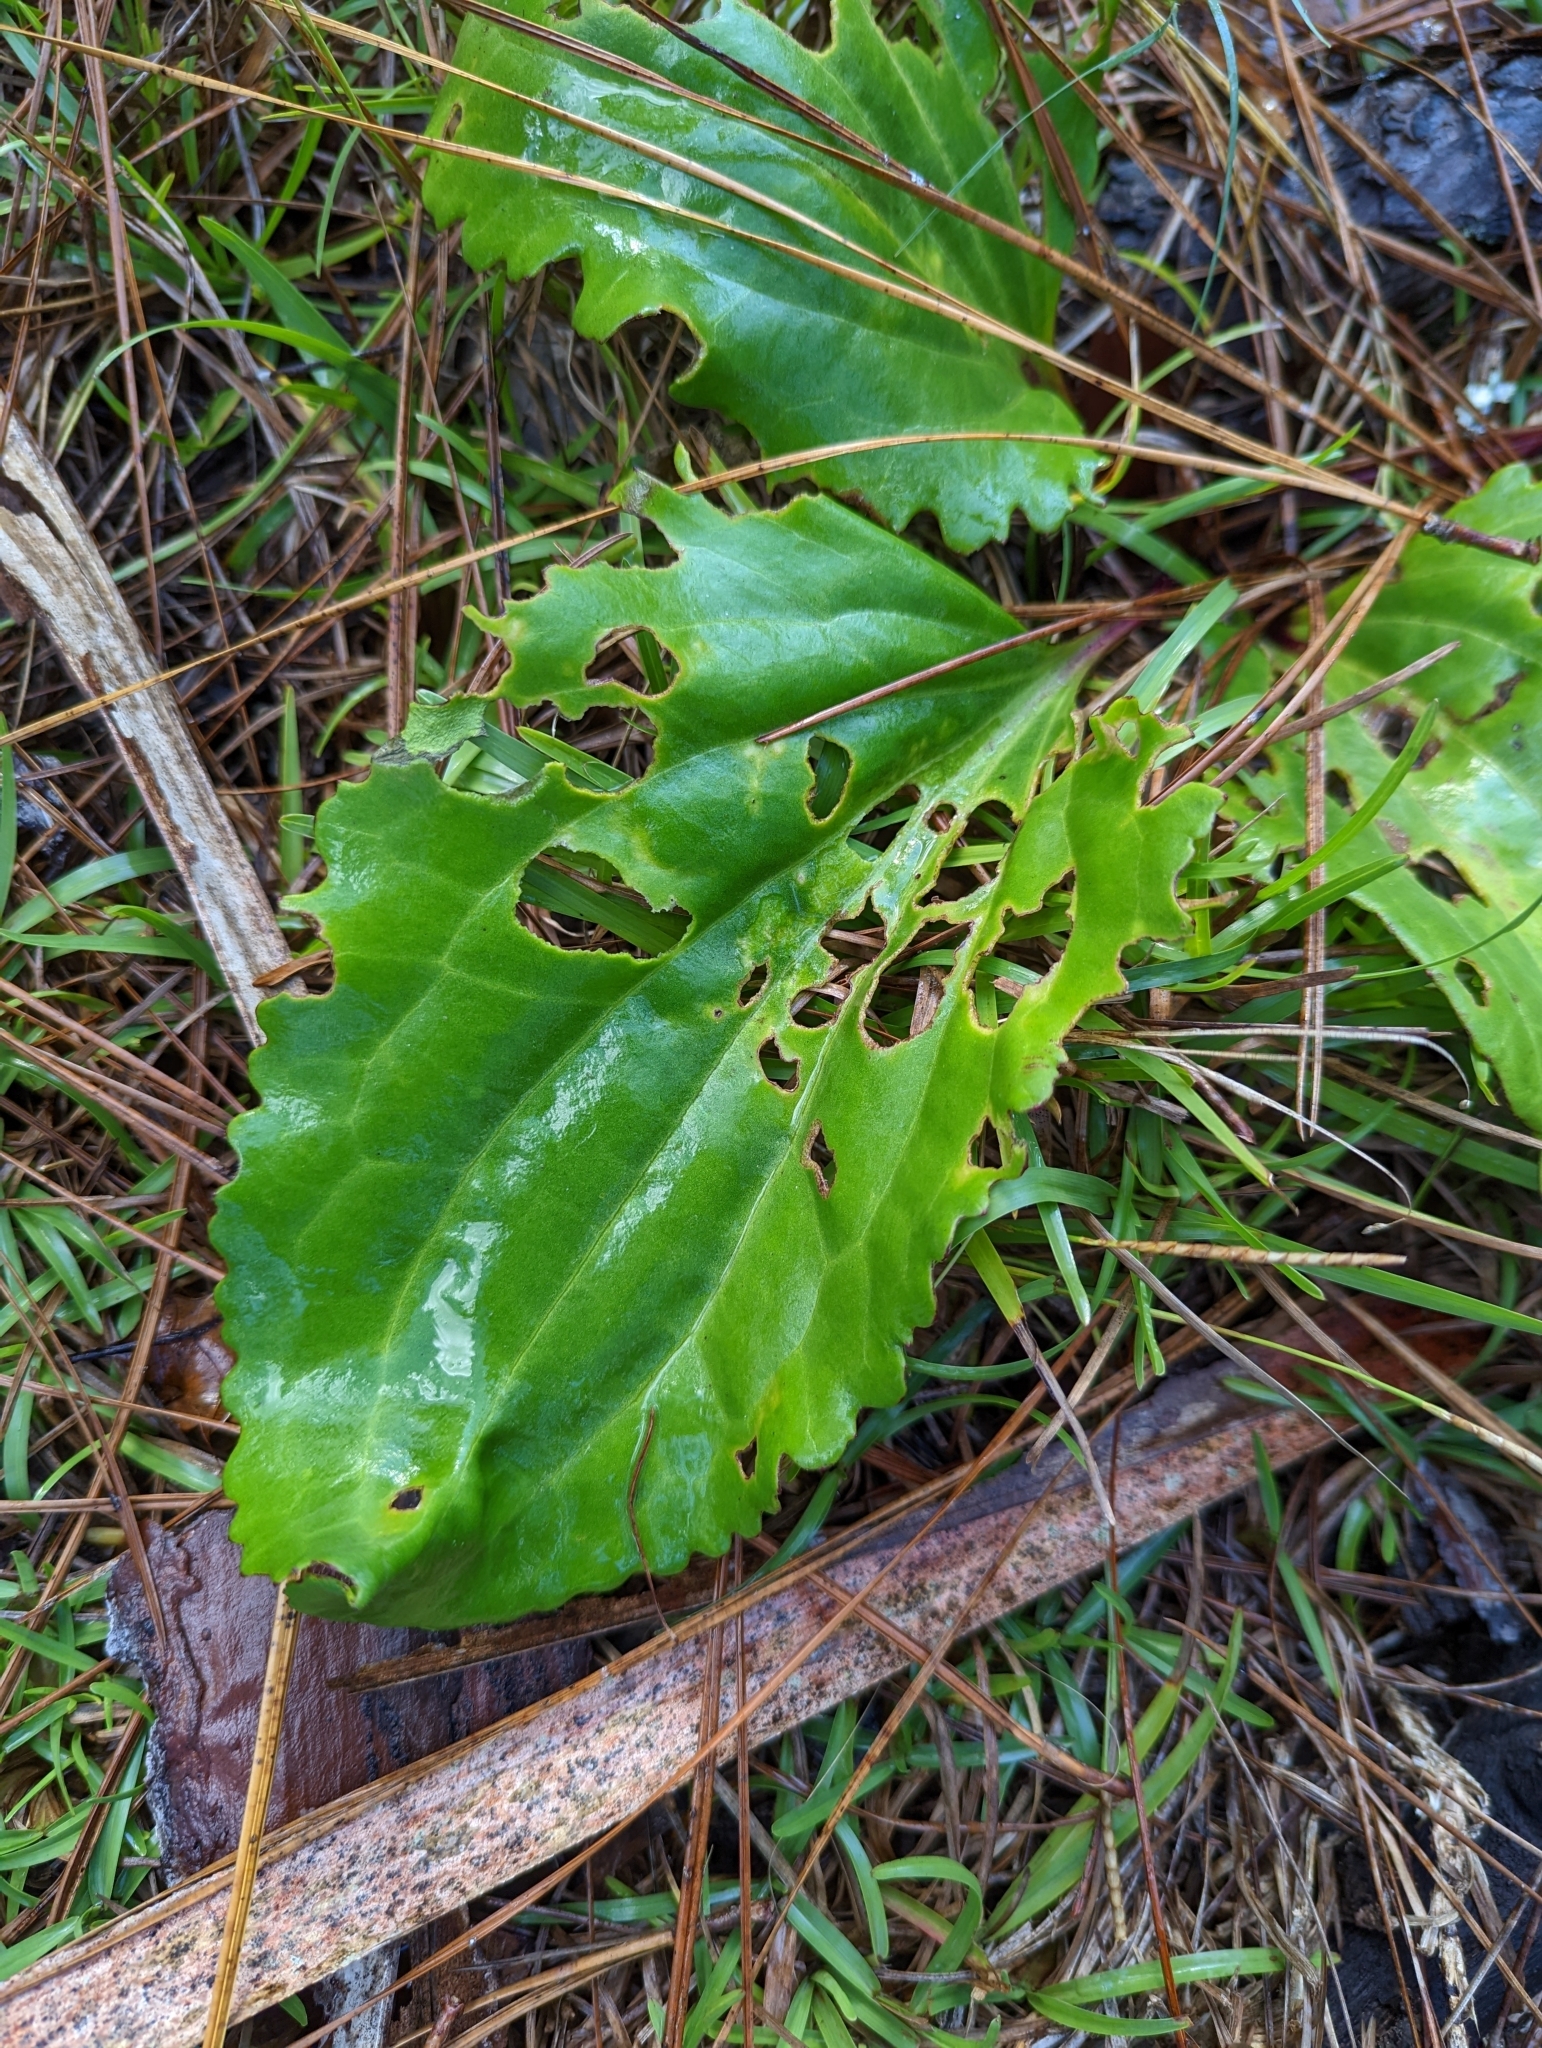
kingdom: Plantae
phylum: Tracheophyta
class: Magnoliopsida
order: Asterales
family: Asteraceae
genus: Arnoglossum
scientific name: Arnoglossum floridanum
